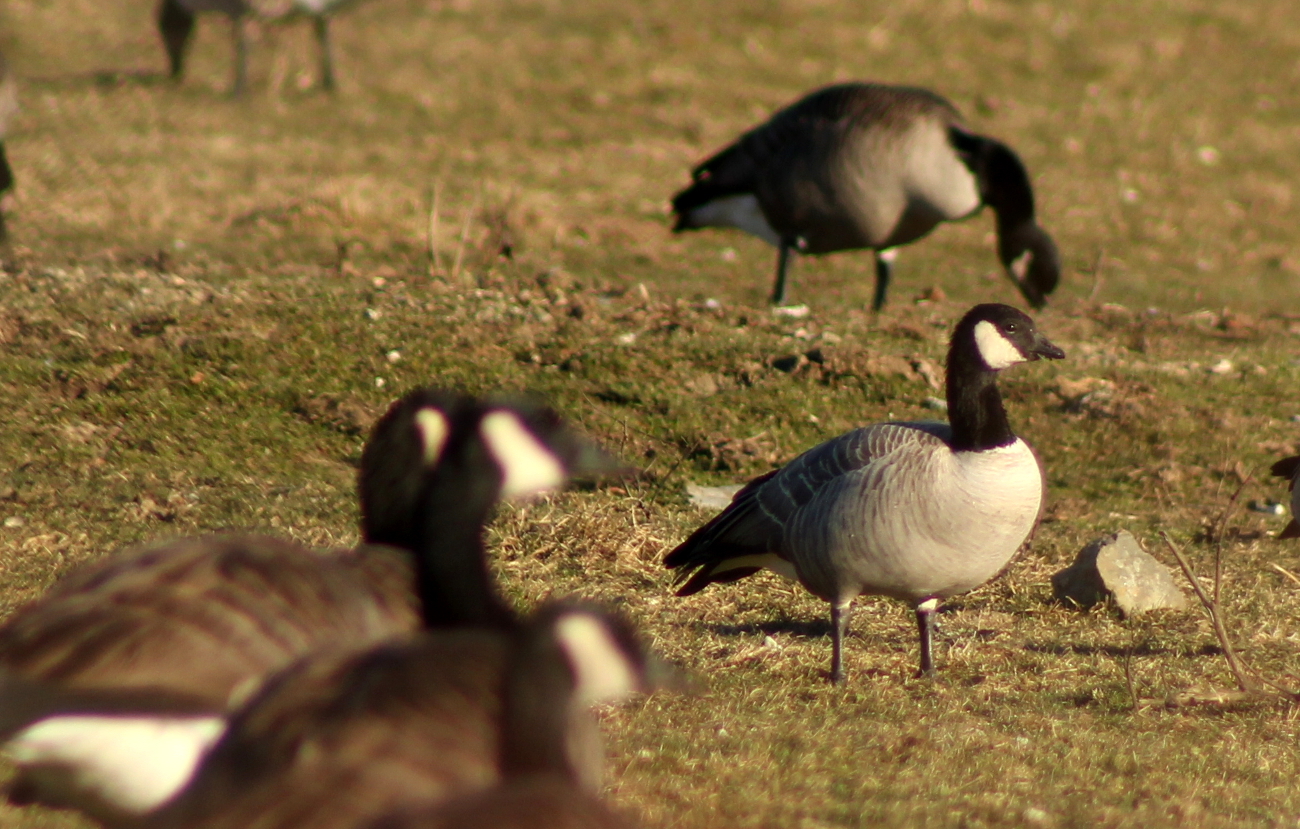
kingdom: Animalia
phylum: Chordata
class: Aves
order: Anseriformes
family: Anatidae
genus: Branta
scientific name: Branta hutchinsii
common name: Cackling goose
